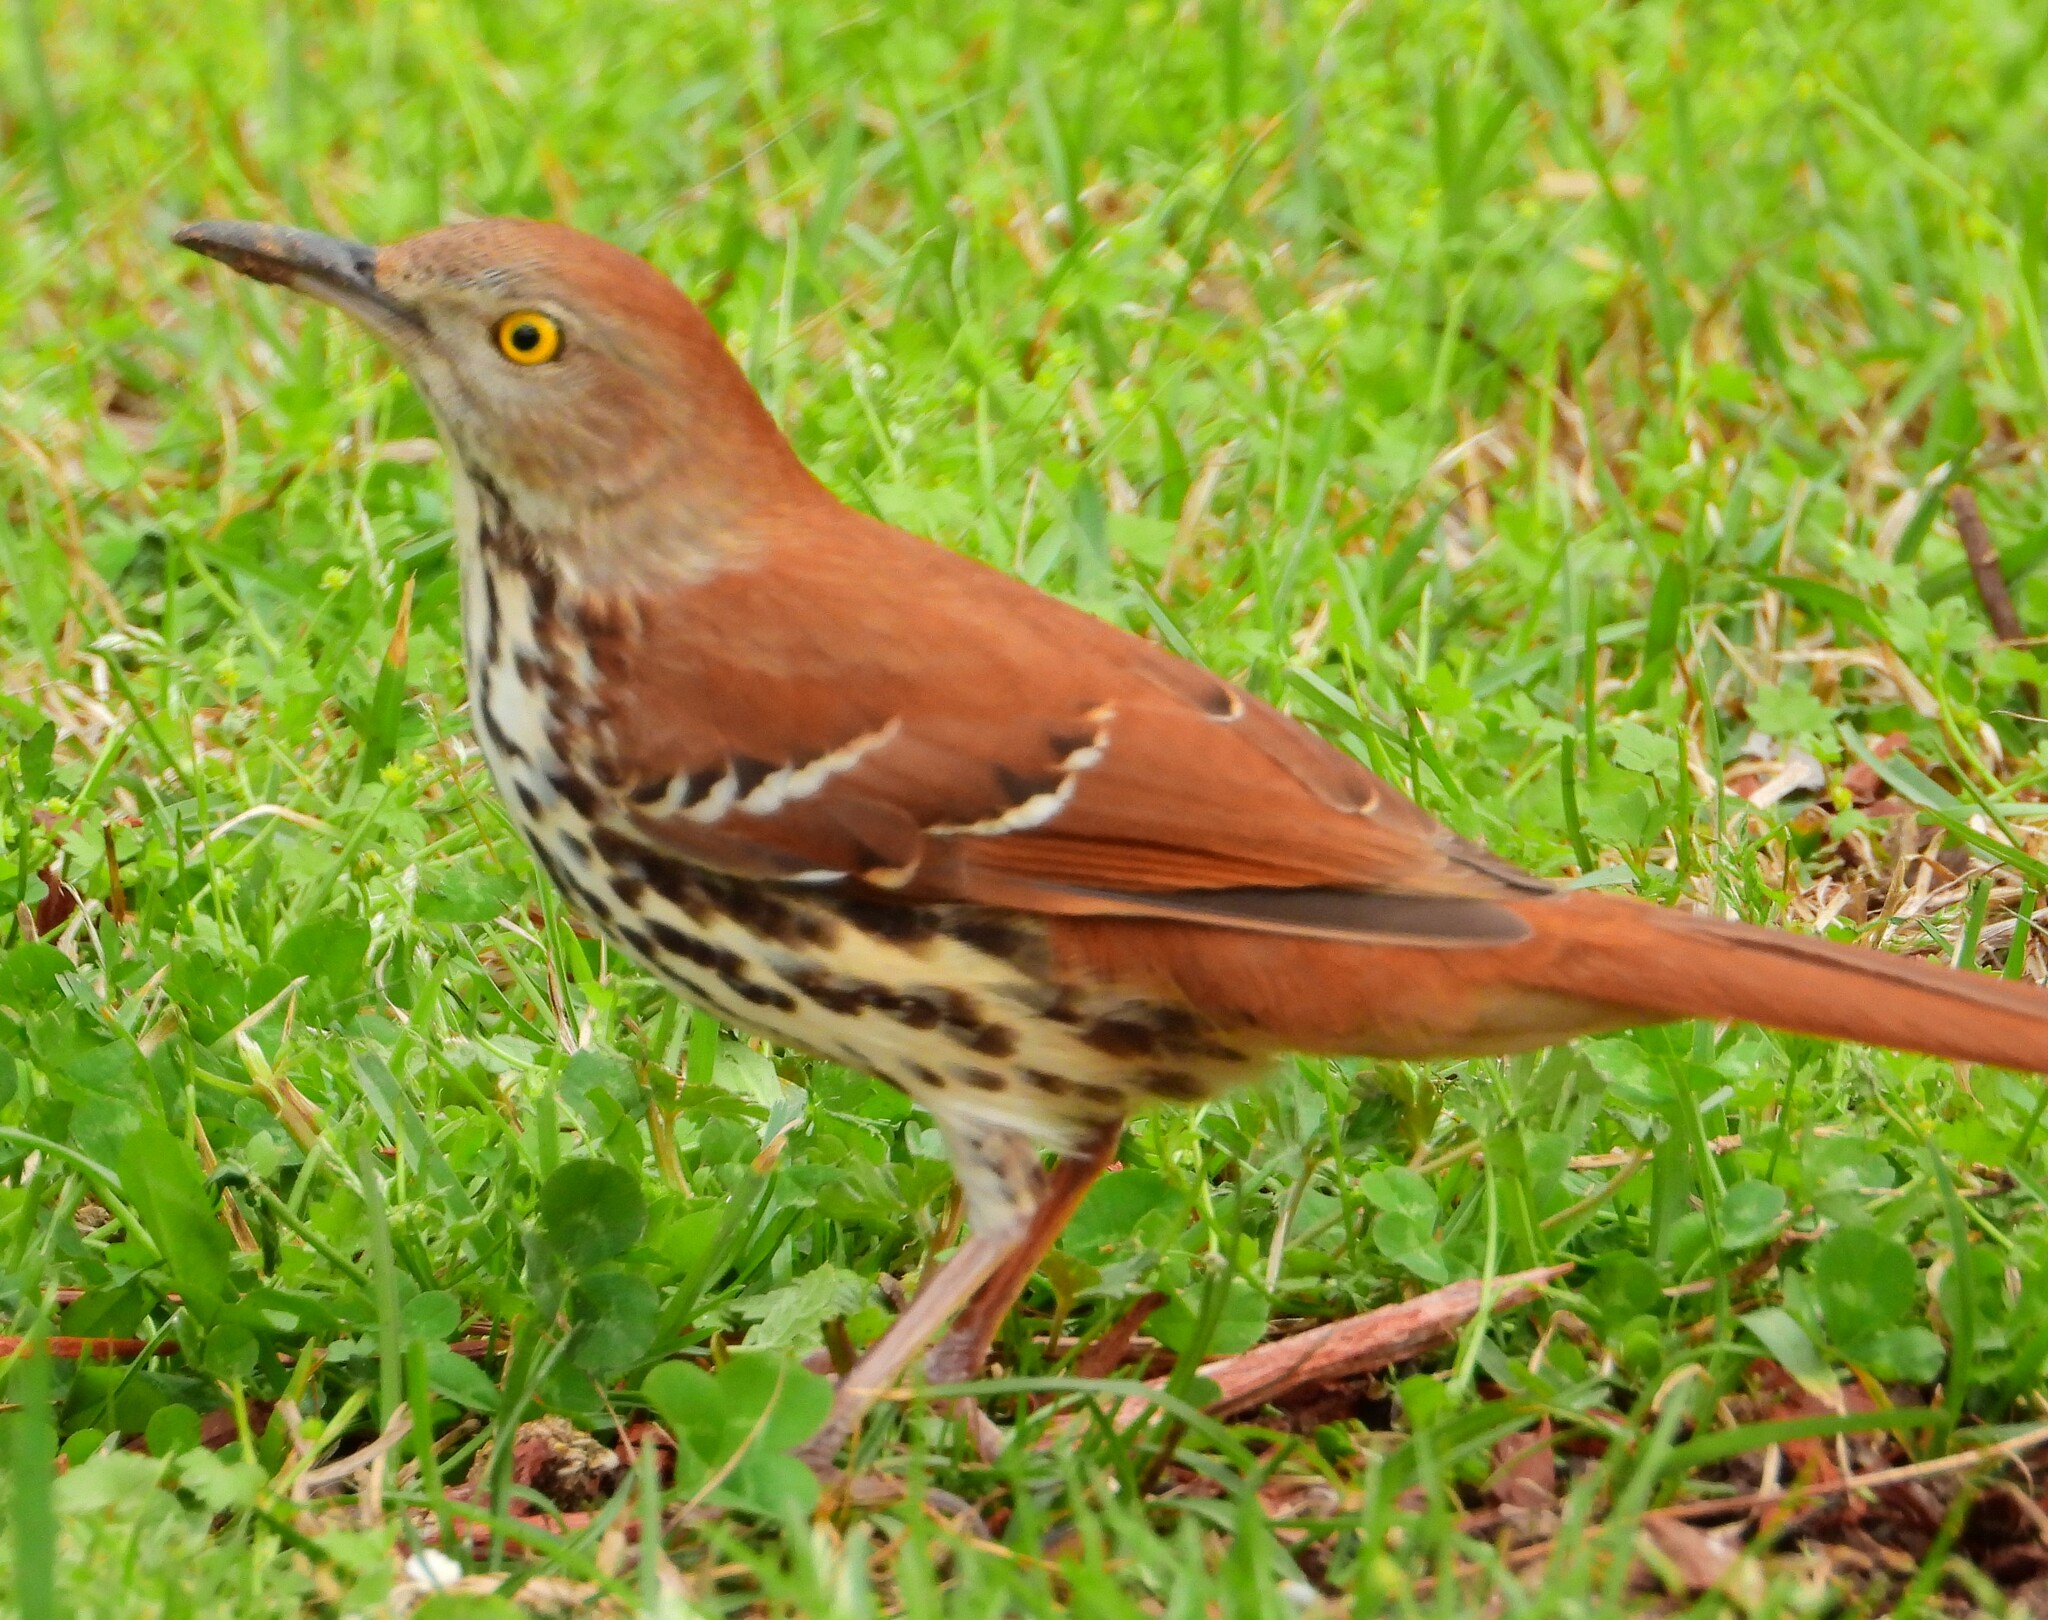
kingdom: Animalia
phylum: Chordata
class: Aves
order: Passeriformes
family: Mimidae
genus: Toxostoma
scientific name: Toxostoma rufum
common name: Brown thrasher
